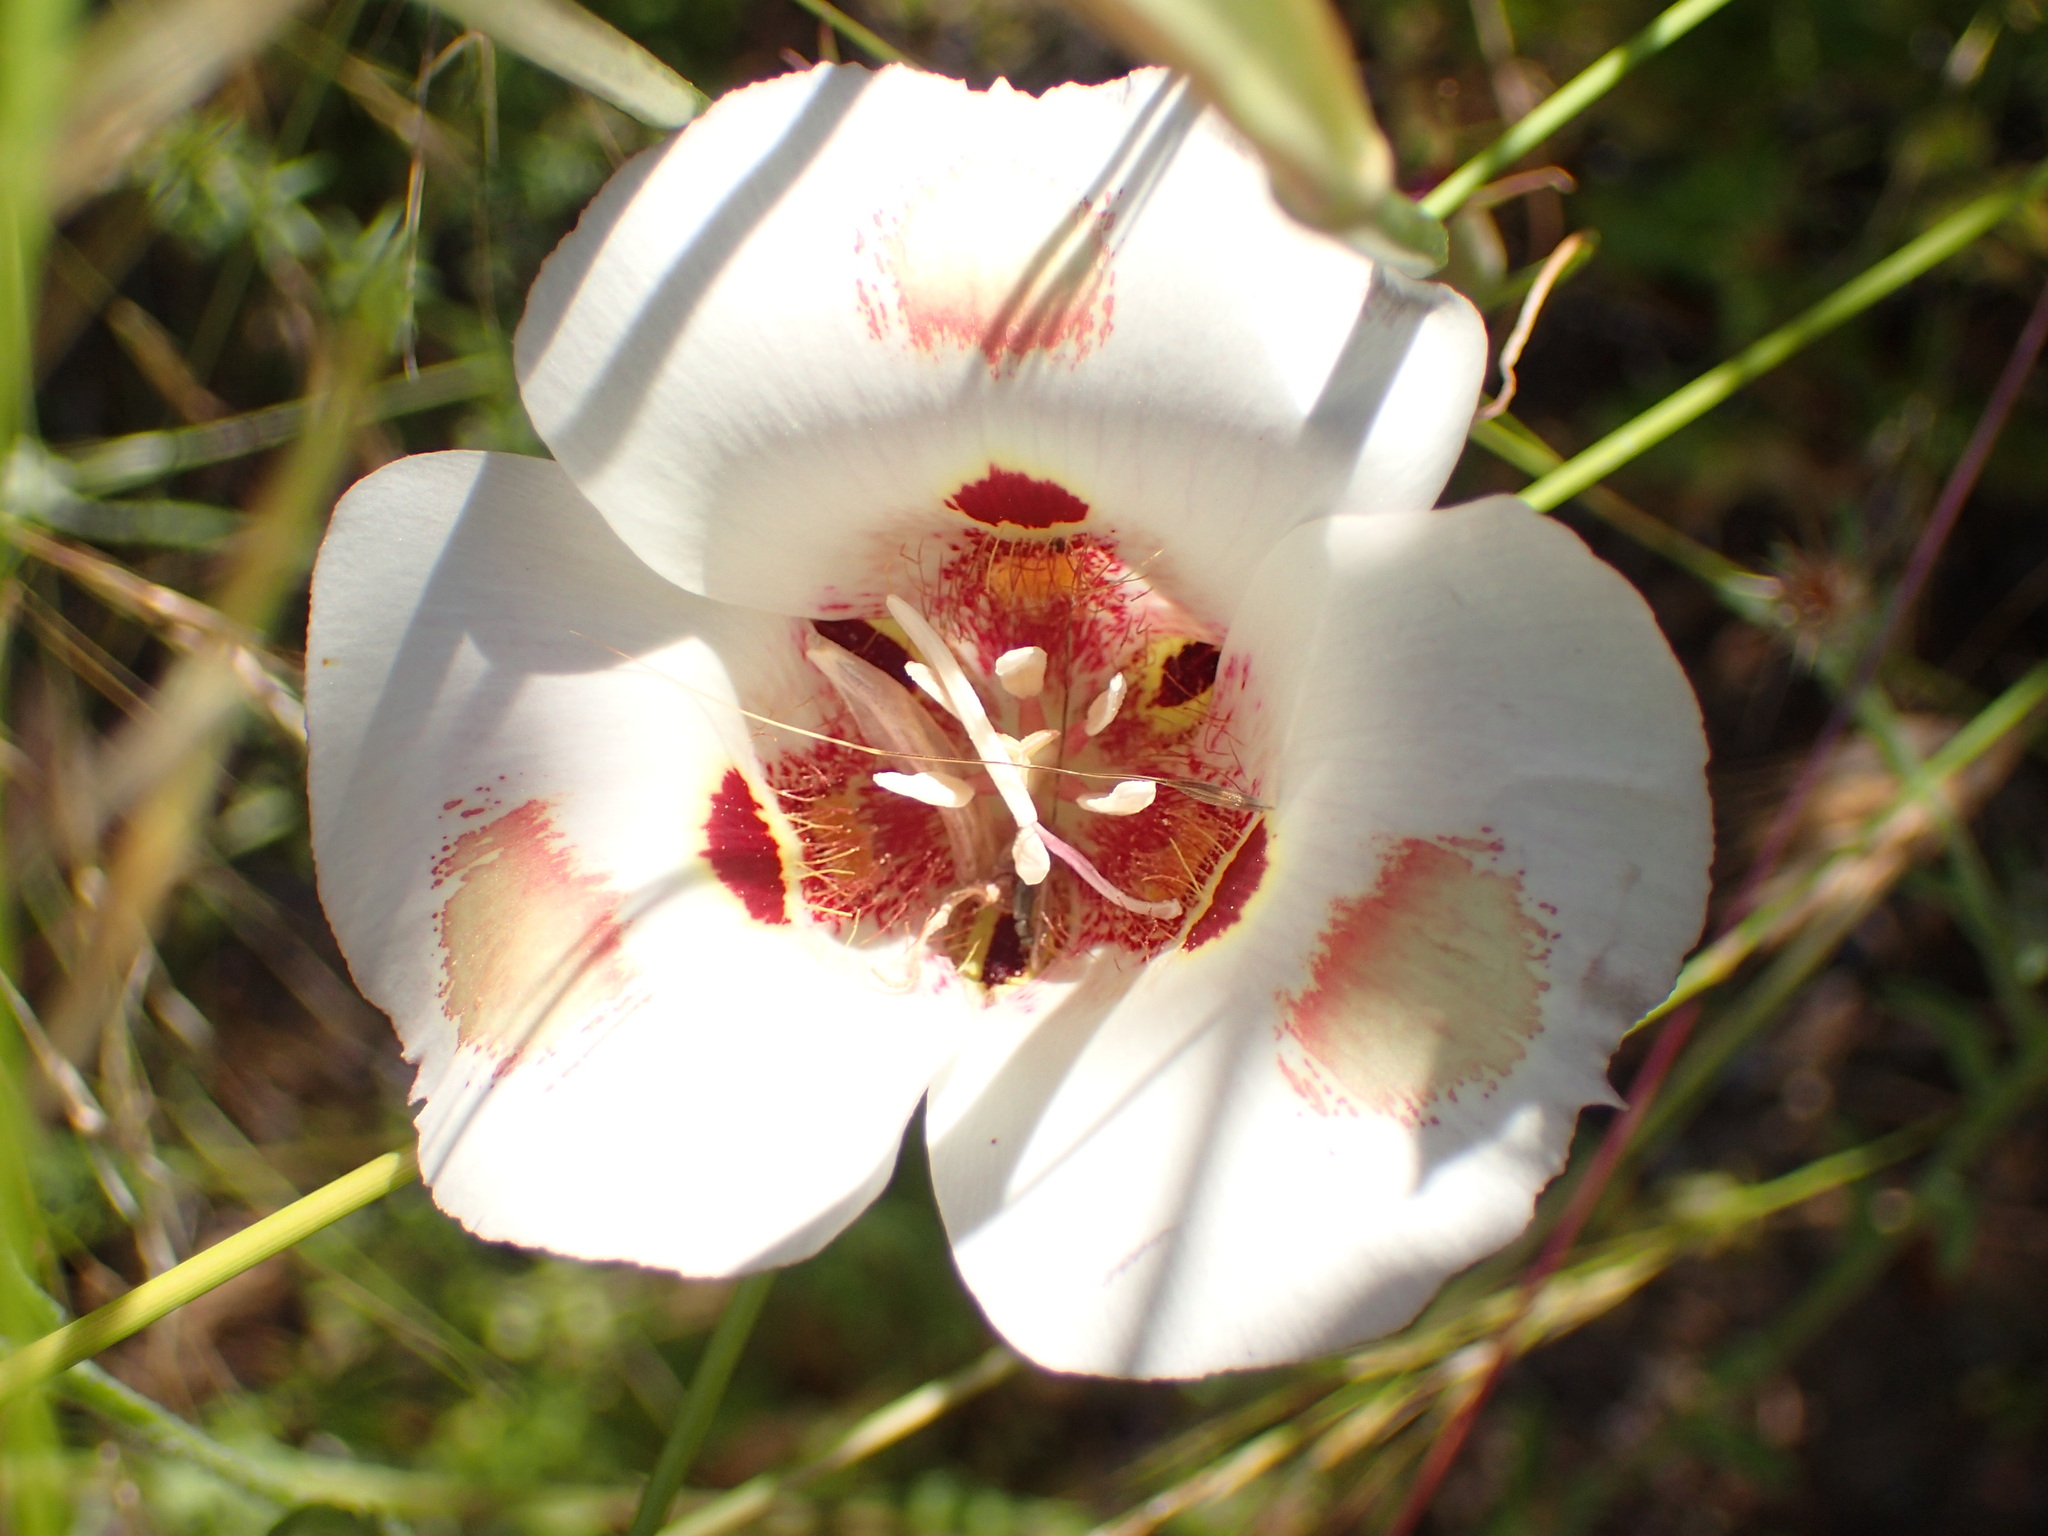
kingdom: Plantae
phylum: Tracheophyta
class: Liliopsida
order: Liliales
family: Liliaceae
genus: Calochortus
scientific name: Calochortus venustus
